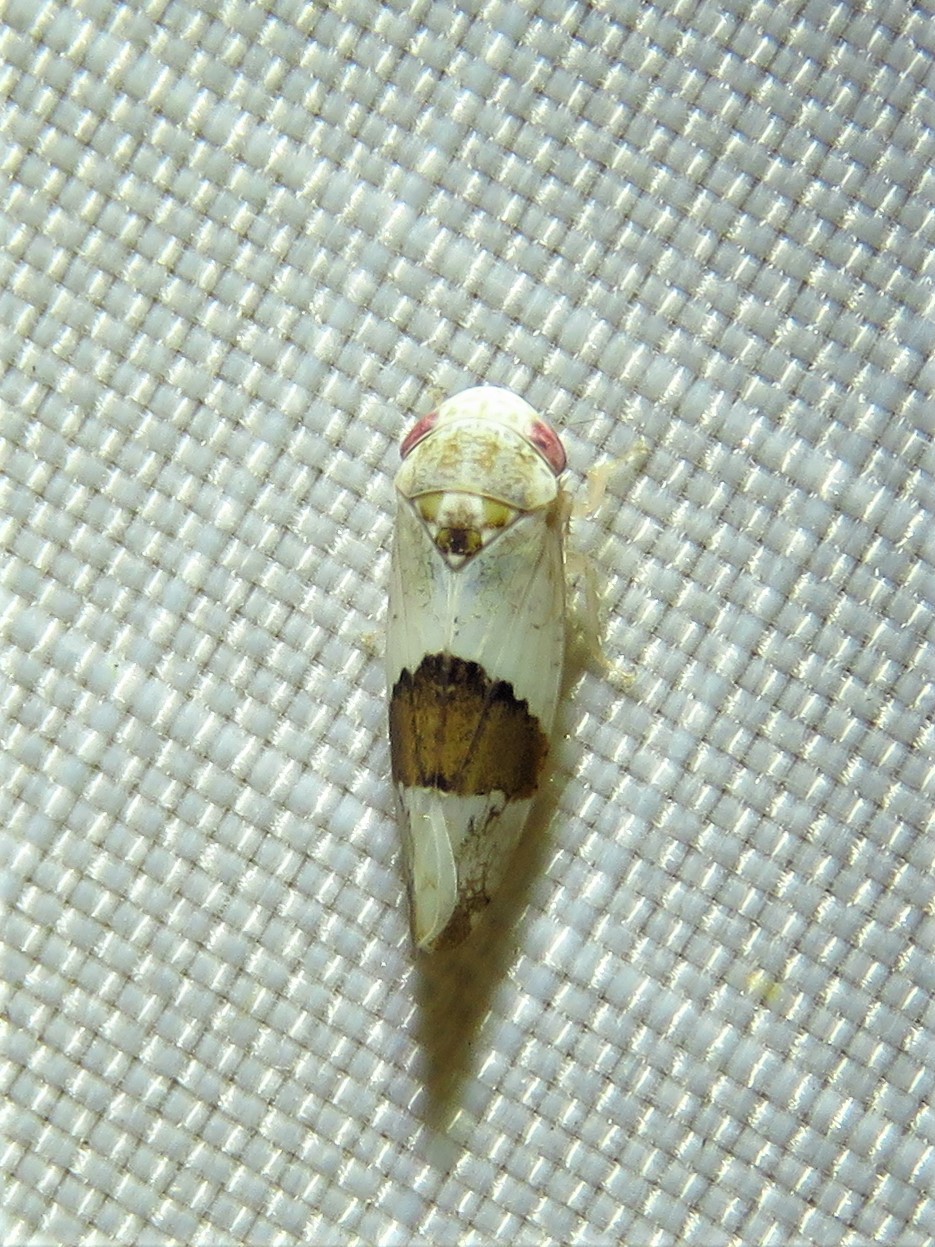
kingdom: Animalia
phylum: Arthropoda
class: Insecta
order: Hemiptera
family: Cicadellidae
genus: Norvellina
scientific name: Norvellina seminuda
